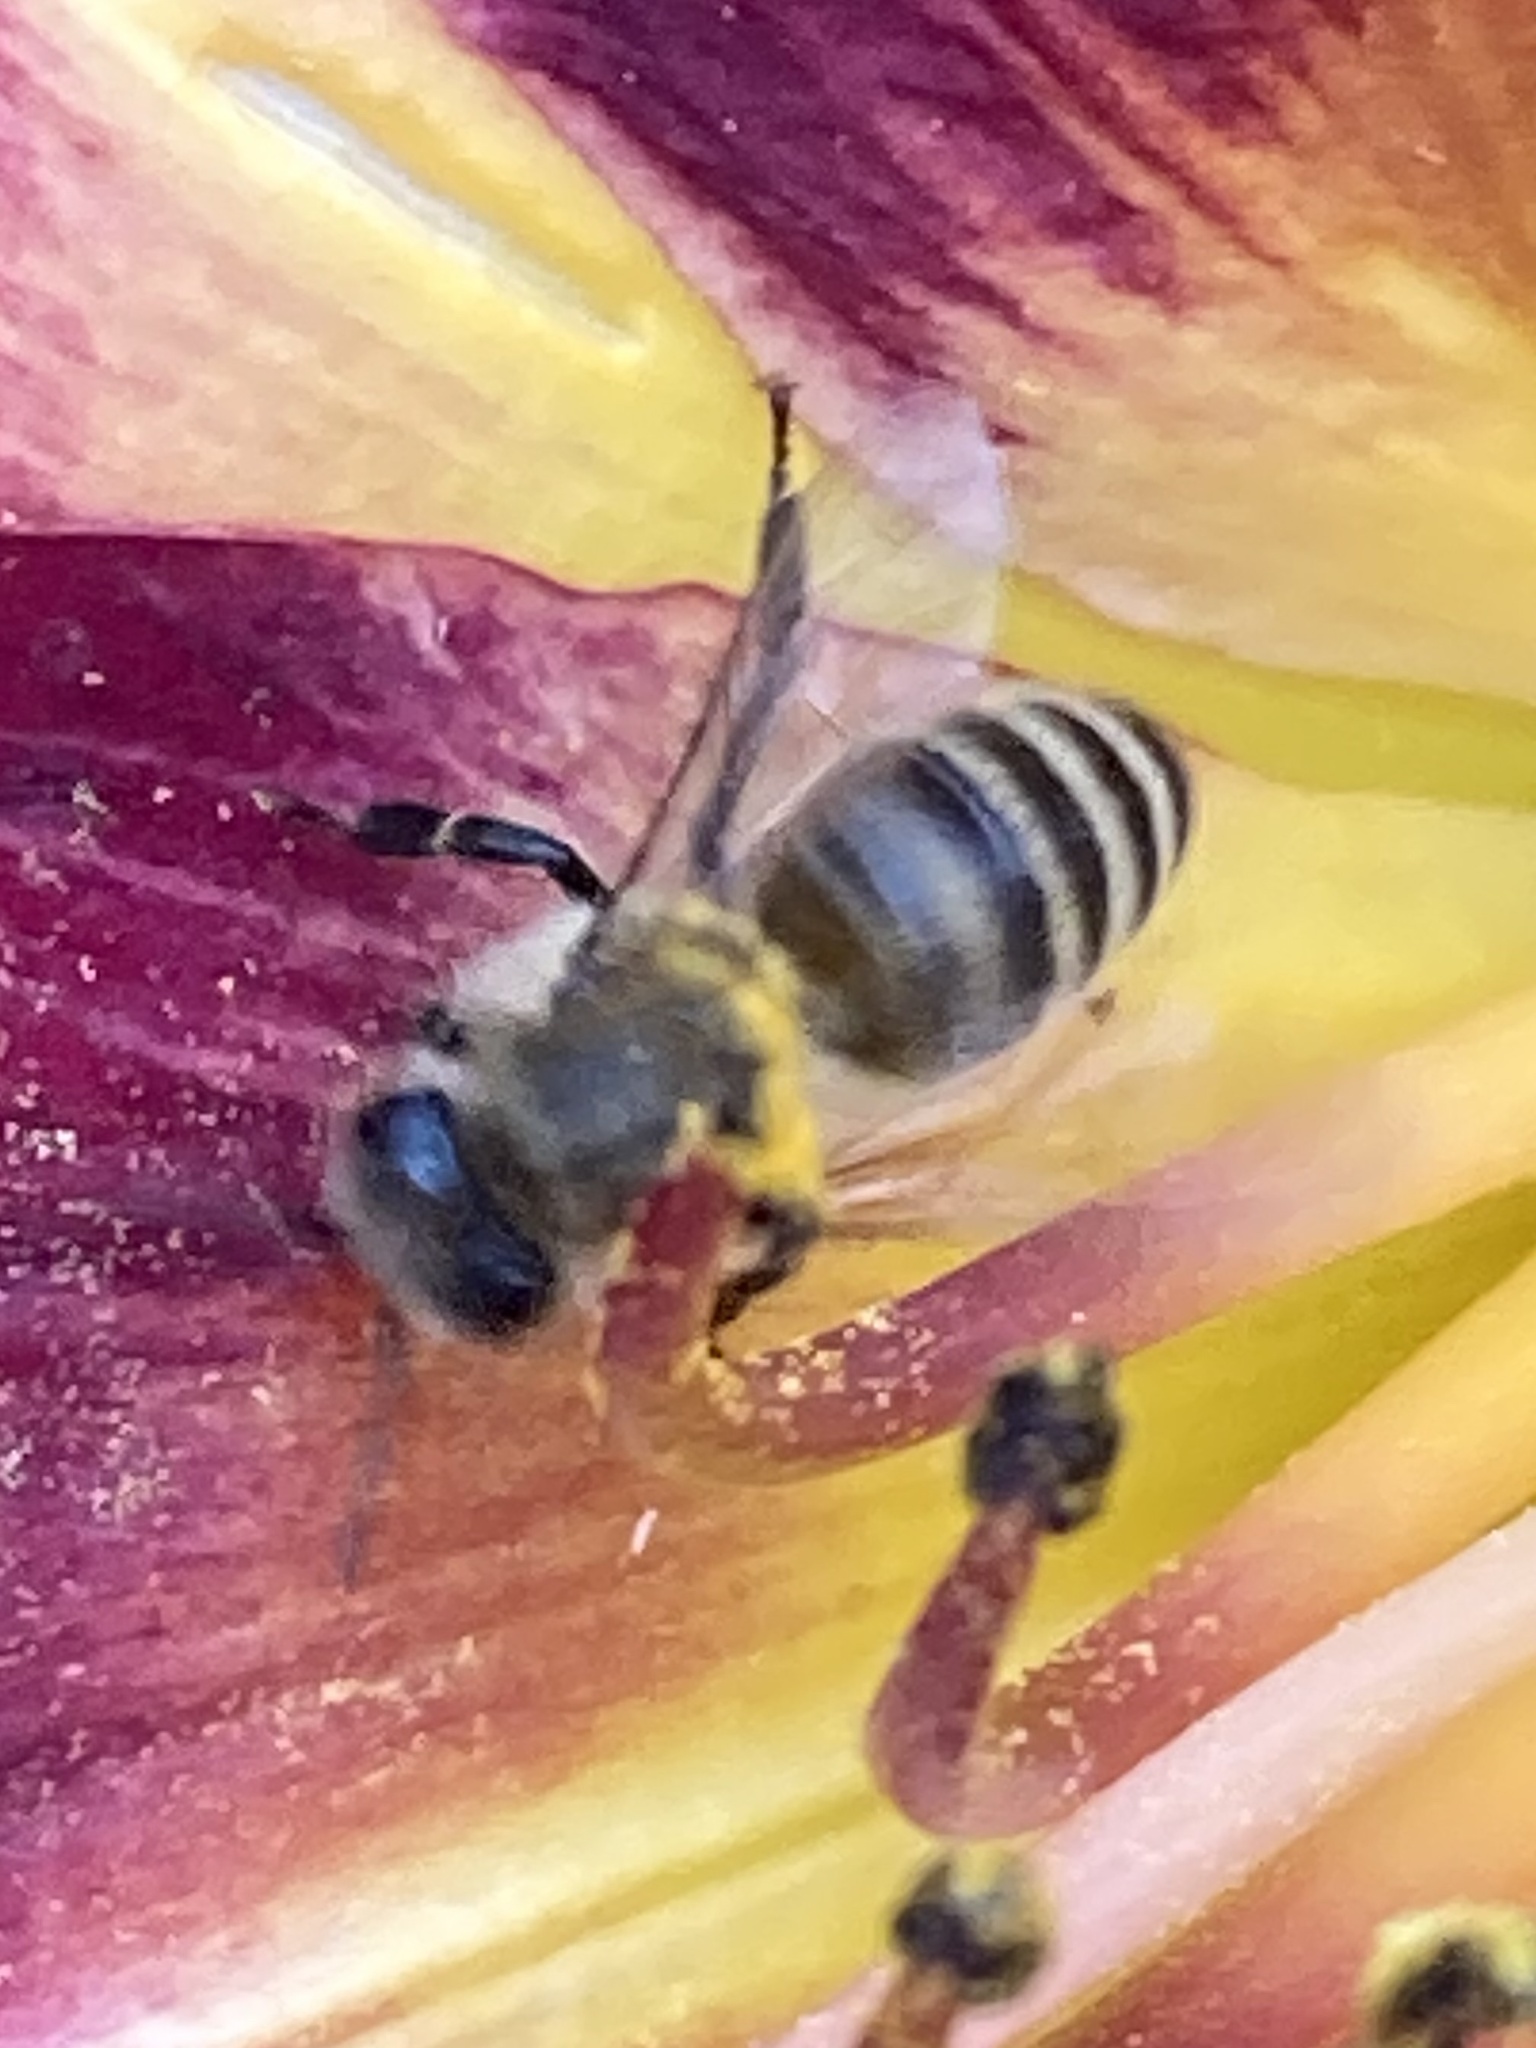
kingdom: Animalia
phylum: Arthropoda
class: Insecta
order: Hymenoptera
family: Apidae
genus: Apis
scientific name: Apis mellifera
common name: Honey bee
